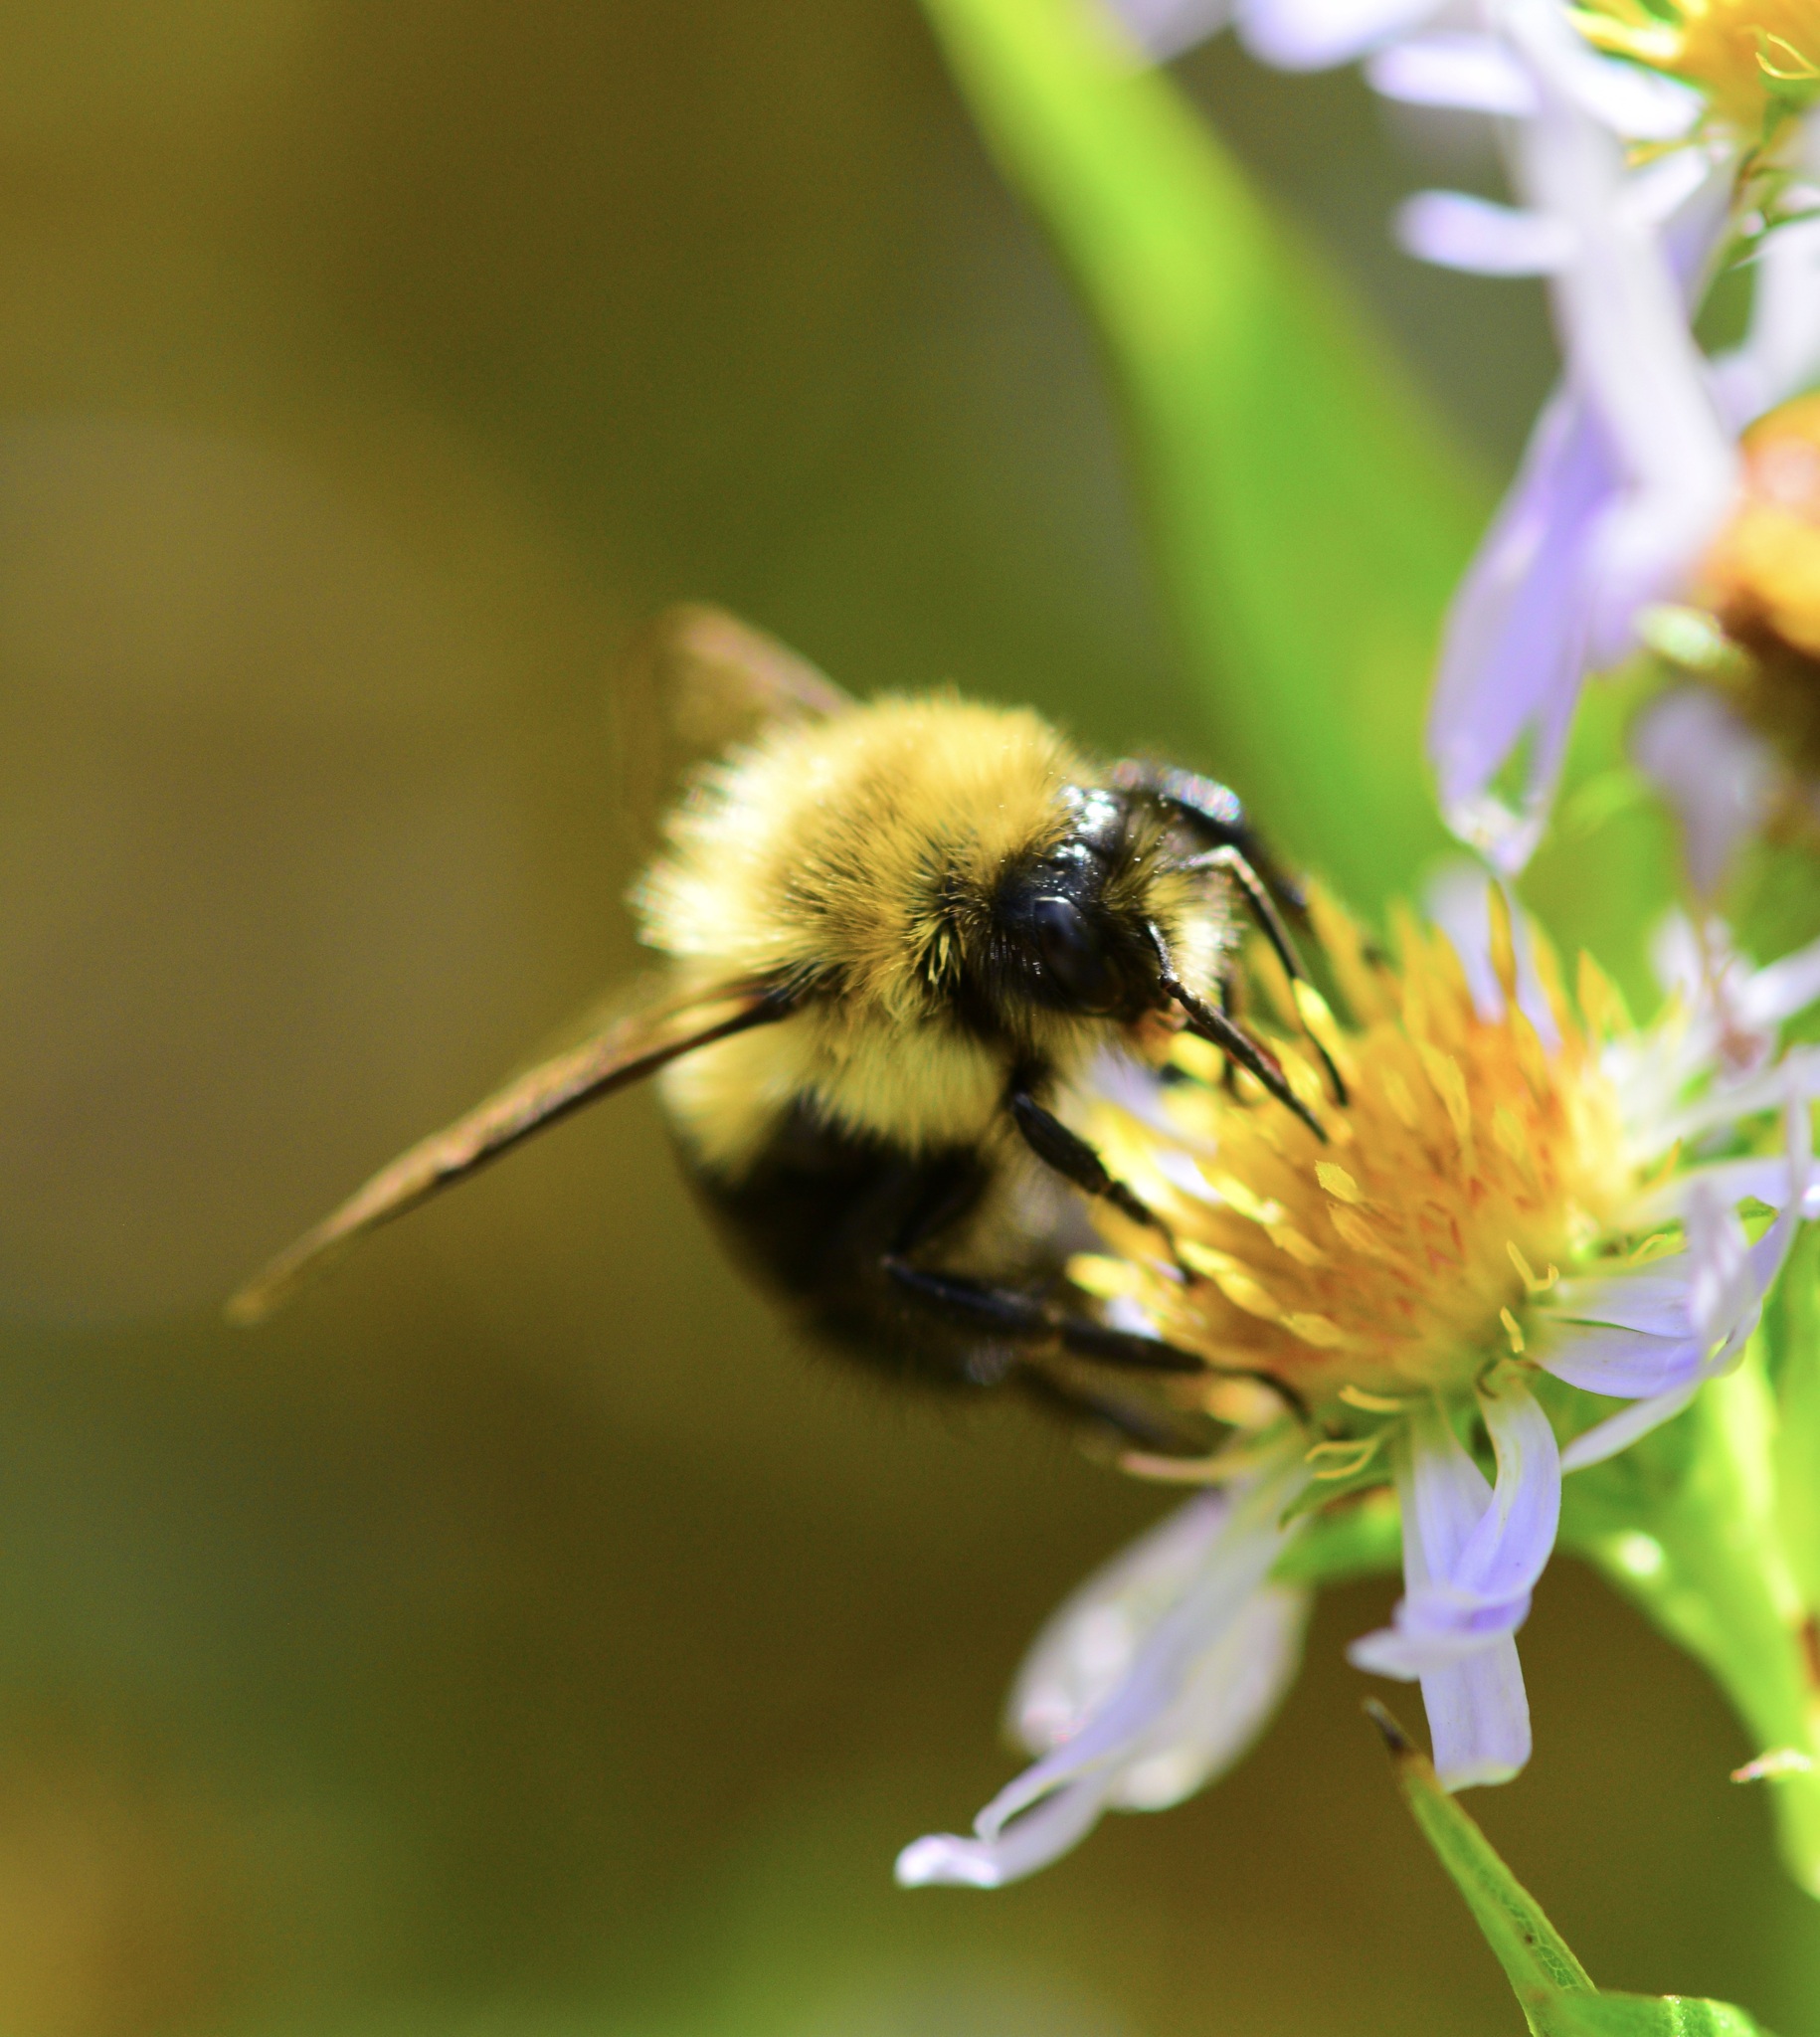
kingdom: Animalia
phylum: Arthropoda
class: Insecta
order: Hymenoptera
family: Apidae
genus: Bombus
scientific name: Bombus impatiens
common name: Common eastern bumble bee
